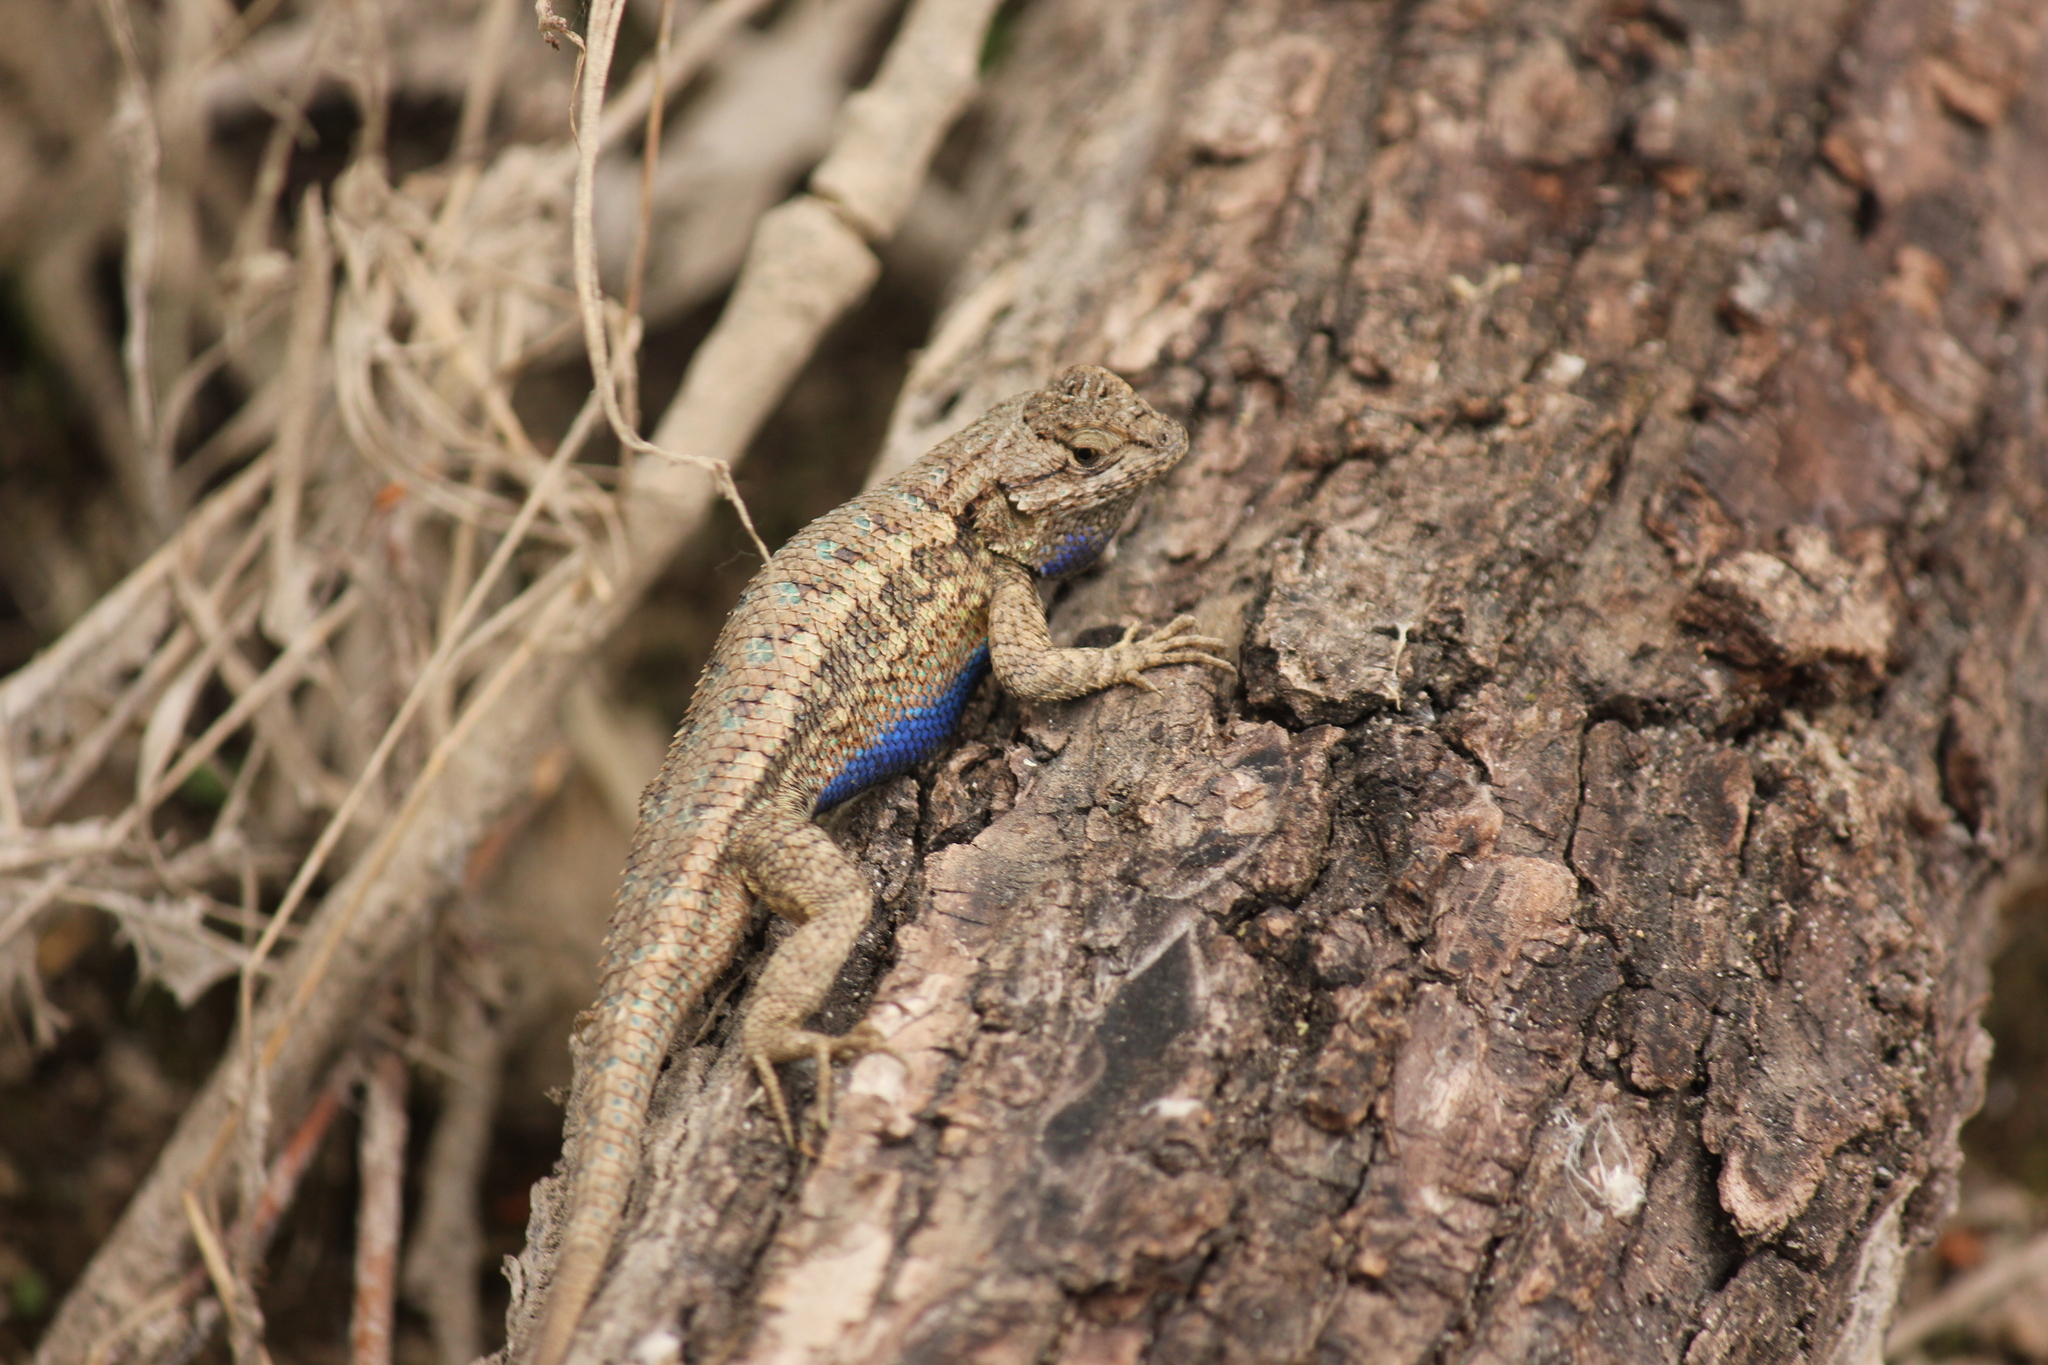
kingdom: Animalia
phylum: Chordata
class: Squamata
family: Phrynosomatidae
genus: Sceloporus
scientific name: Sceloporus occidentalis
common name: Western fence lizard
